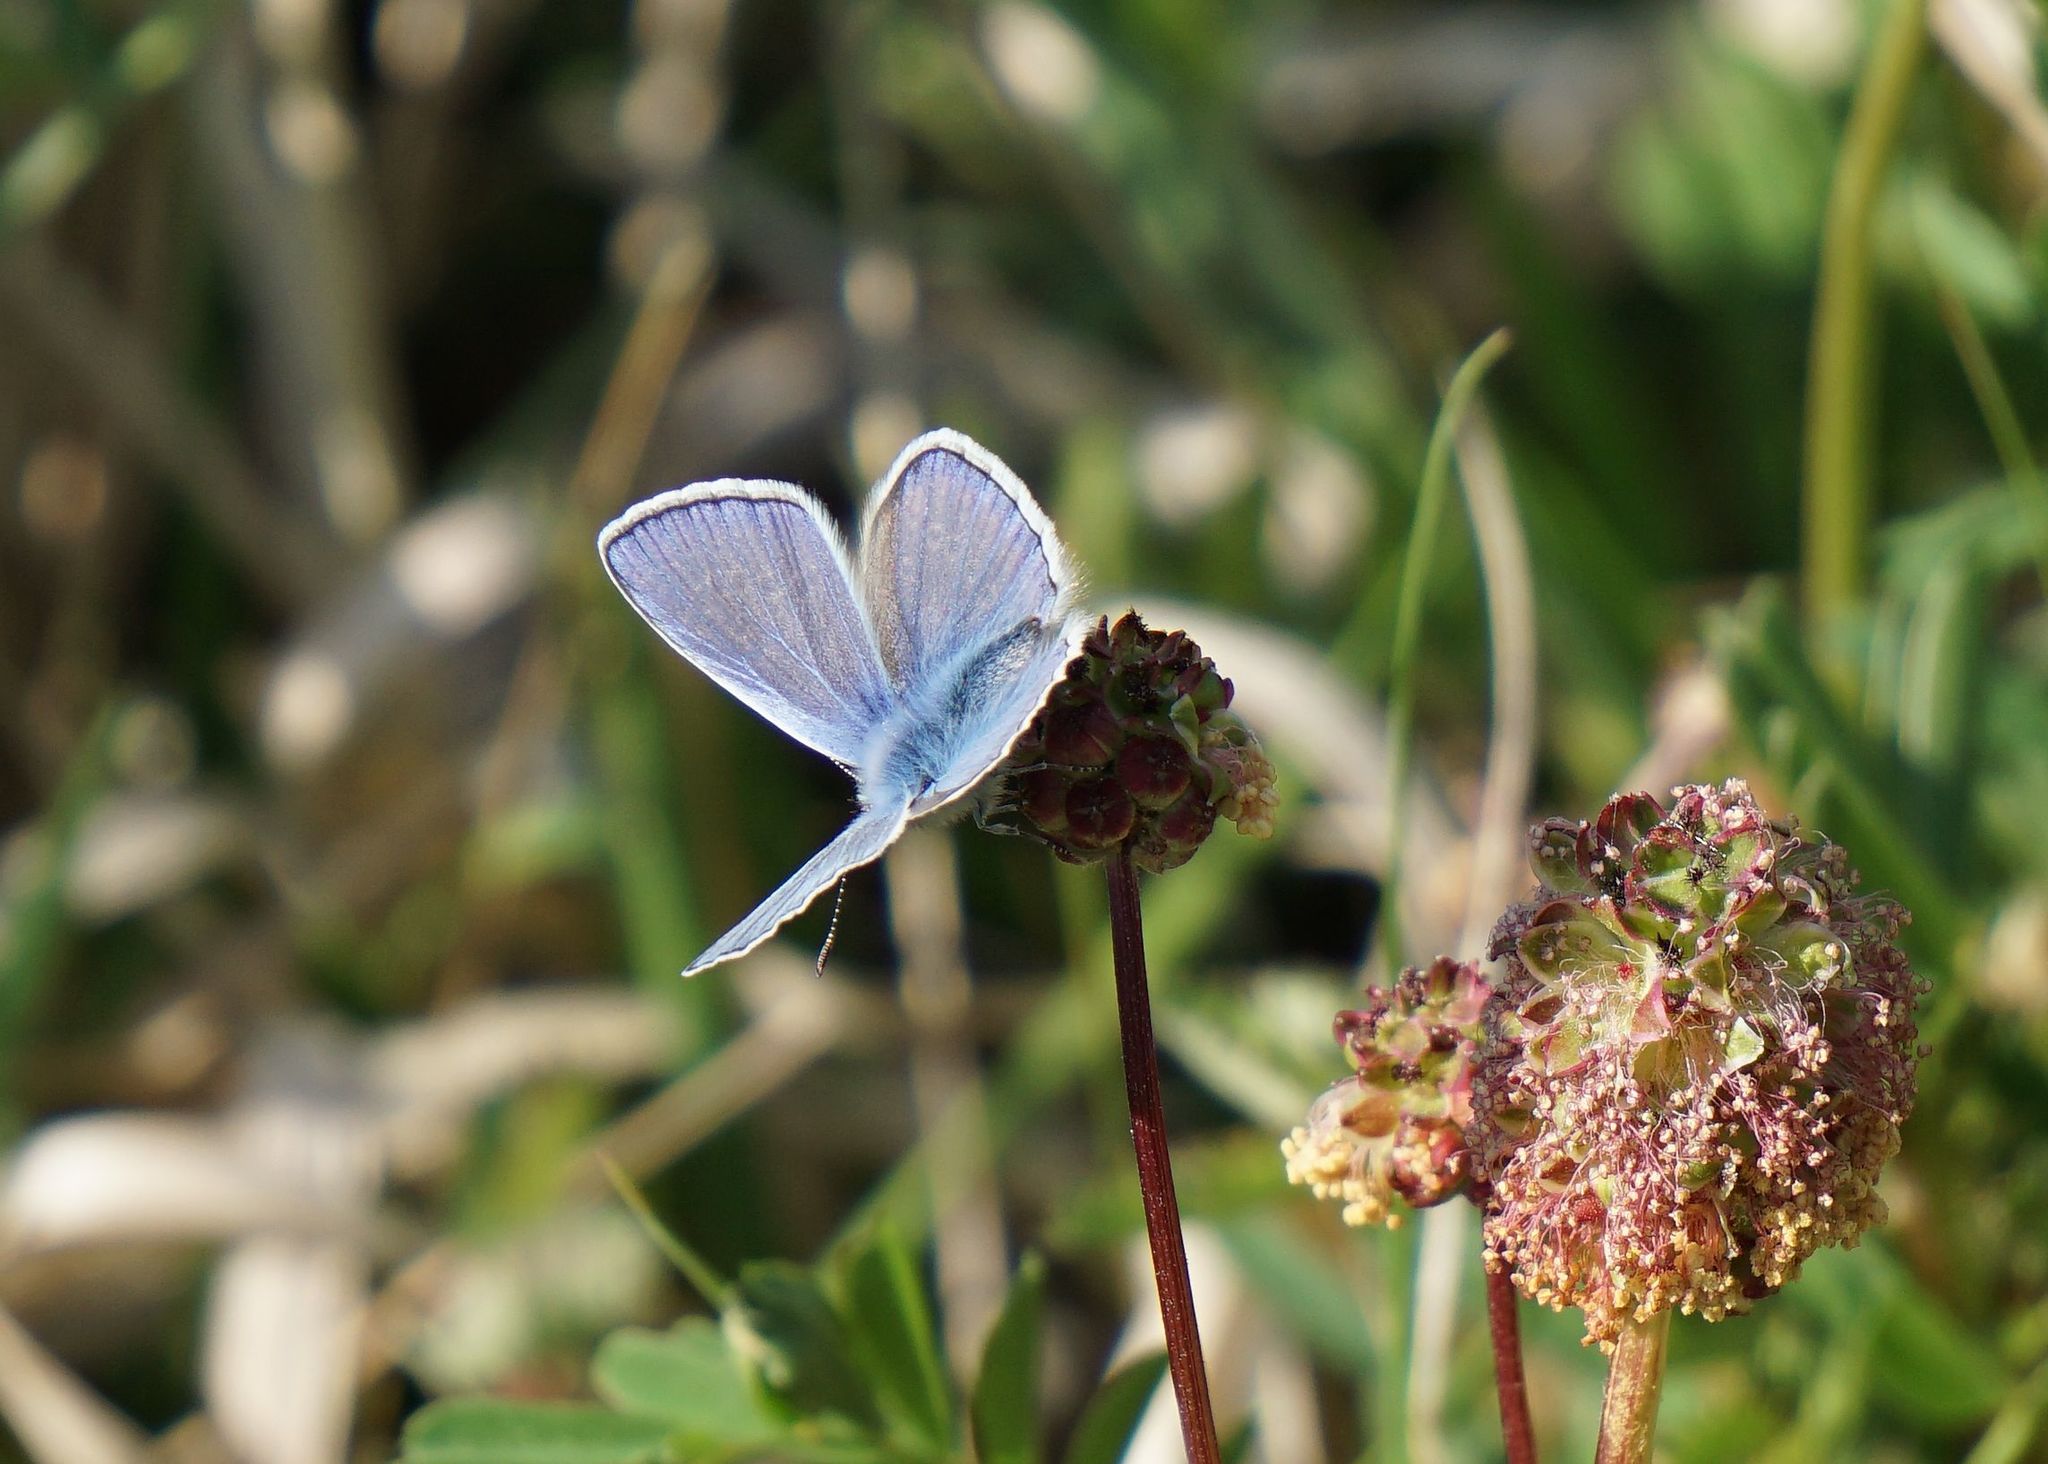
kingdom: Animalia
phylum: Arthropoda
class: Insecta
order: Lepidoptera
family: Lycaenidae
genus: Polyommatus
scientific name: Polyommatus icarus
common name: Common blue
